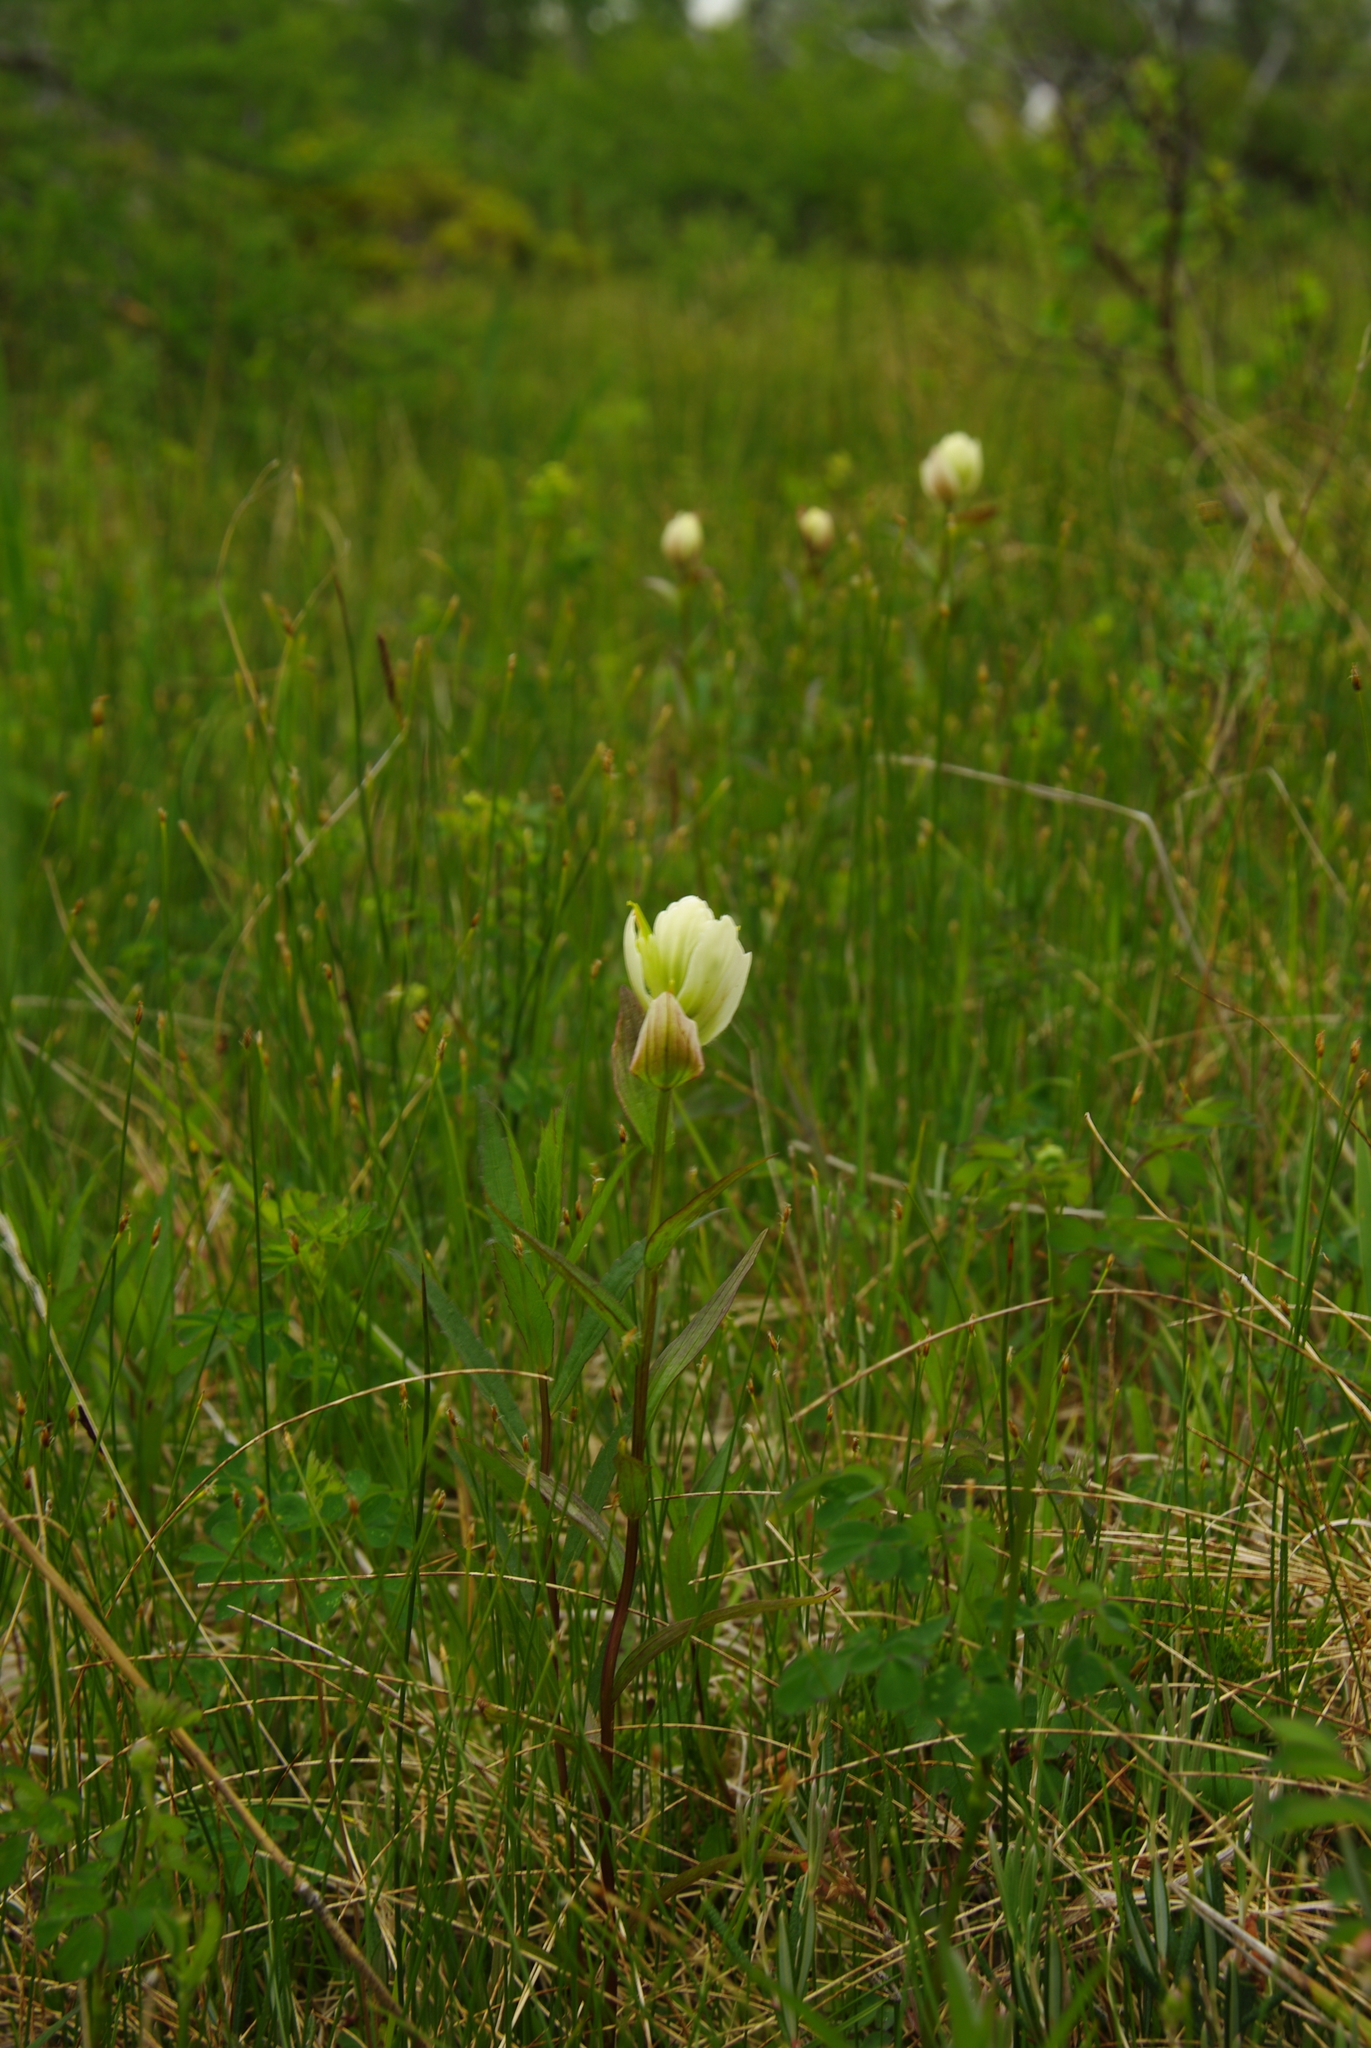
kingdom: Plantae
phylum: Tracheophyta
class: Magnoliopsida
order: Lamiales
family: Orobanchaceae
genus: Castilleja
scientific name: Castilleja septentrionalis
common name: Northeastern paintbrush
